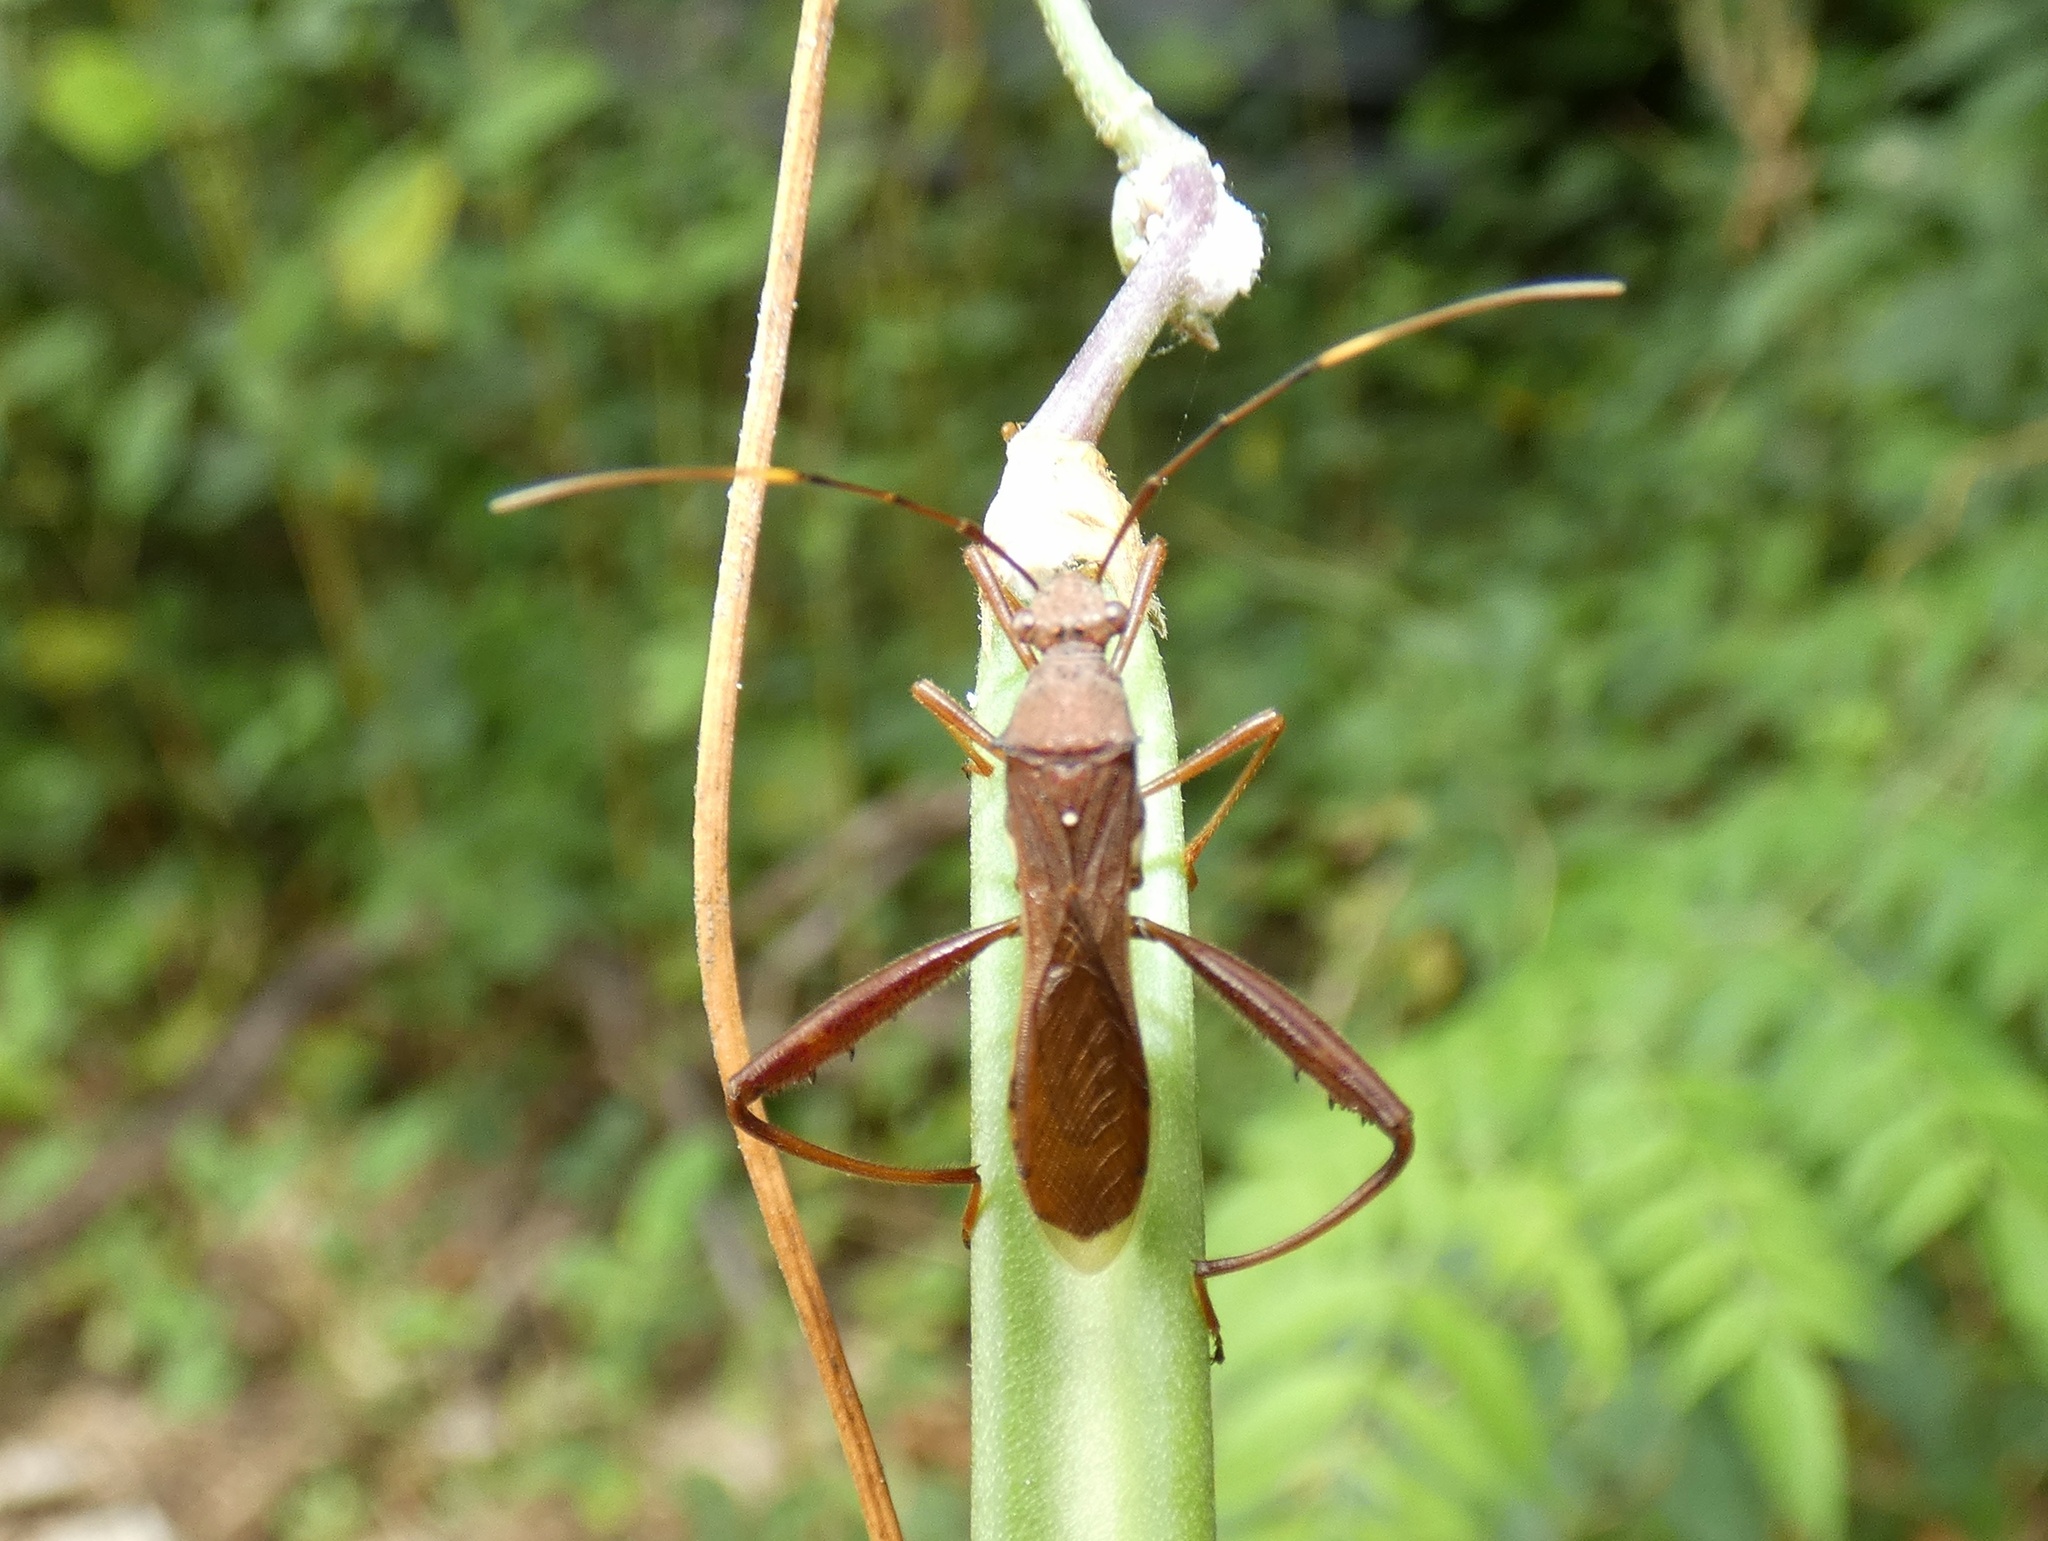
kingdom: Animalia
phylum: Arthropoda
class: Insecta
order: Hemiptera
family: Alydidae
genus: Riptortus
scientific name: Riptortus abdominalis
